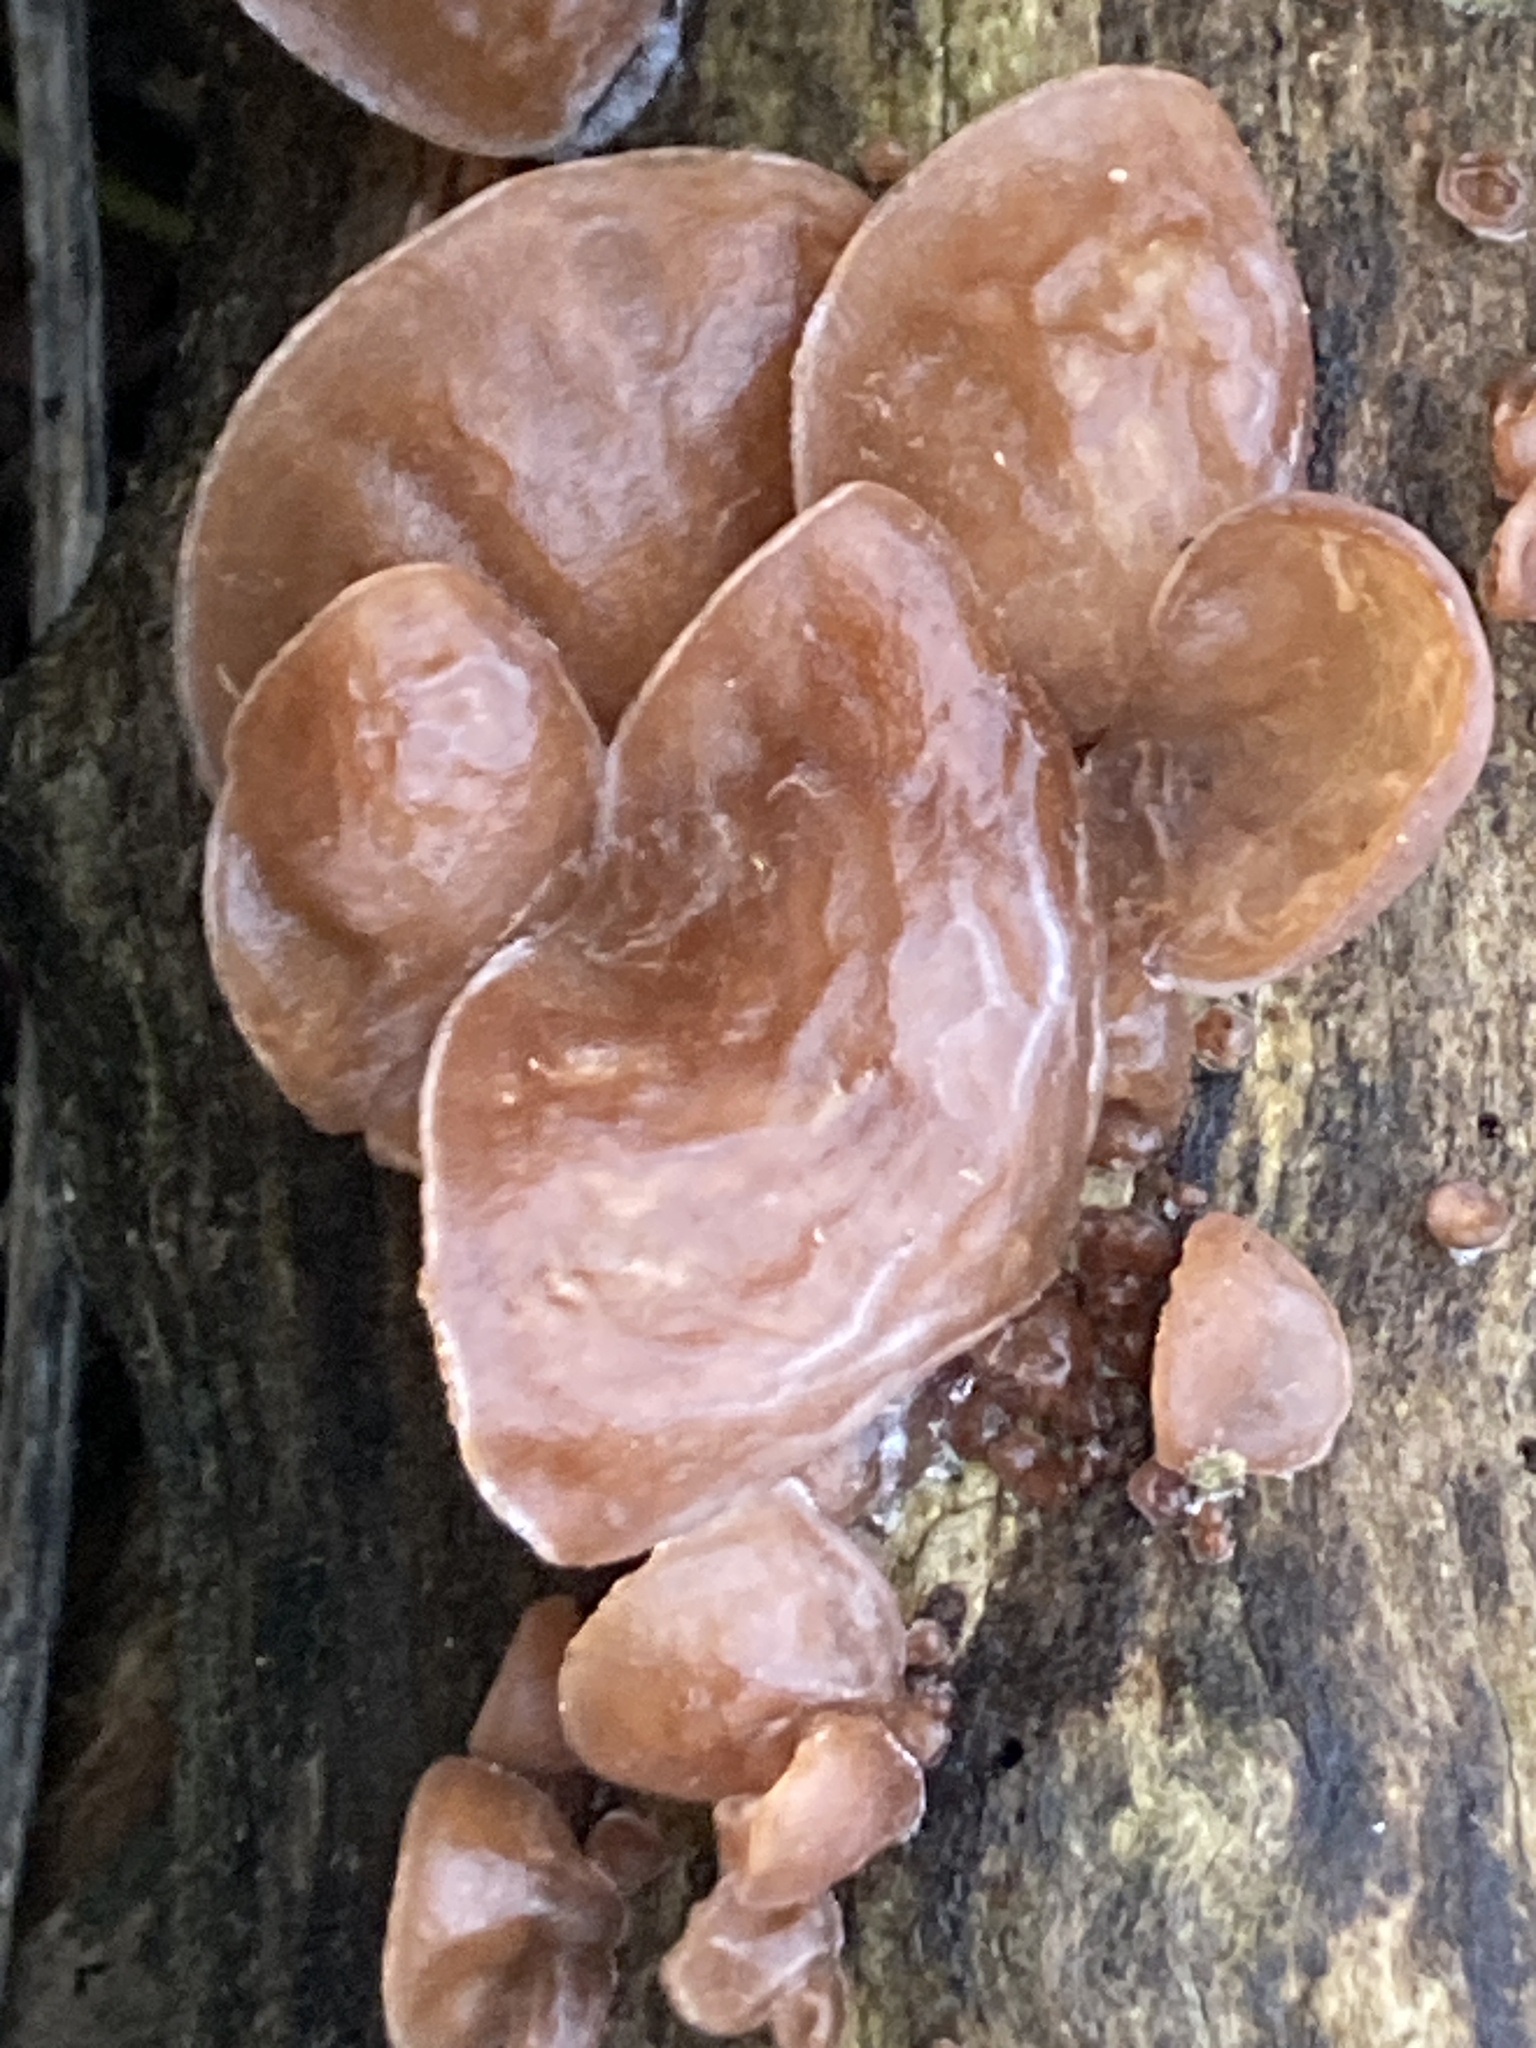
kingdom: Fungi
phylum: Basidiomycota
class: Agaricomycetes
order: Auriculariales
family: Auriculariaceae
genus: Auricularia
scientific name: Auricularia auricula-judae
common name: Jelly ear
